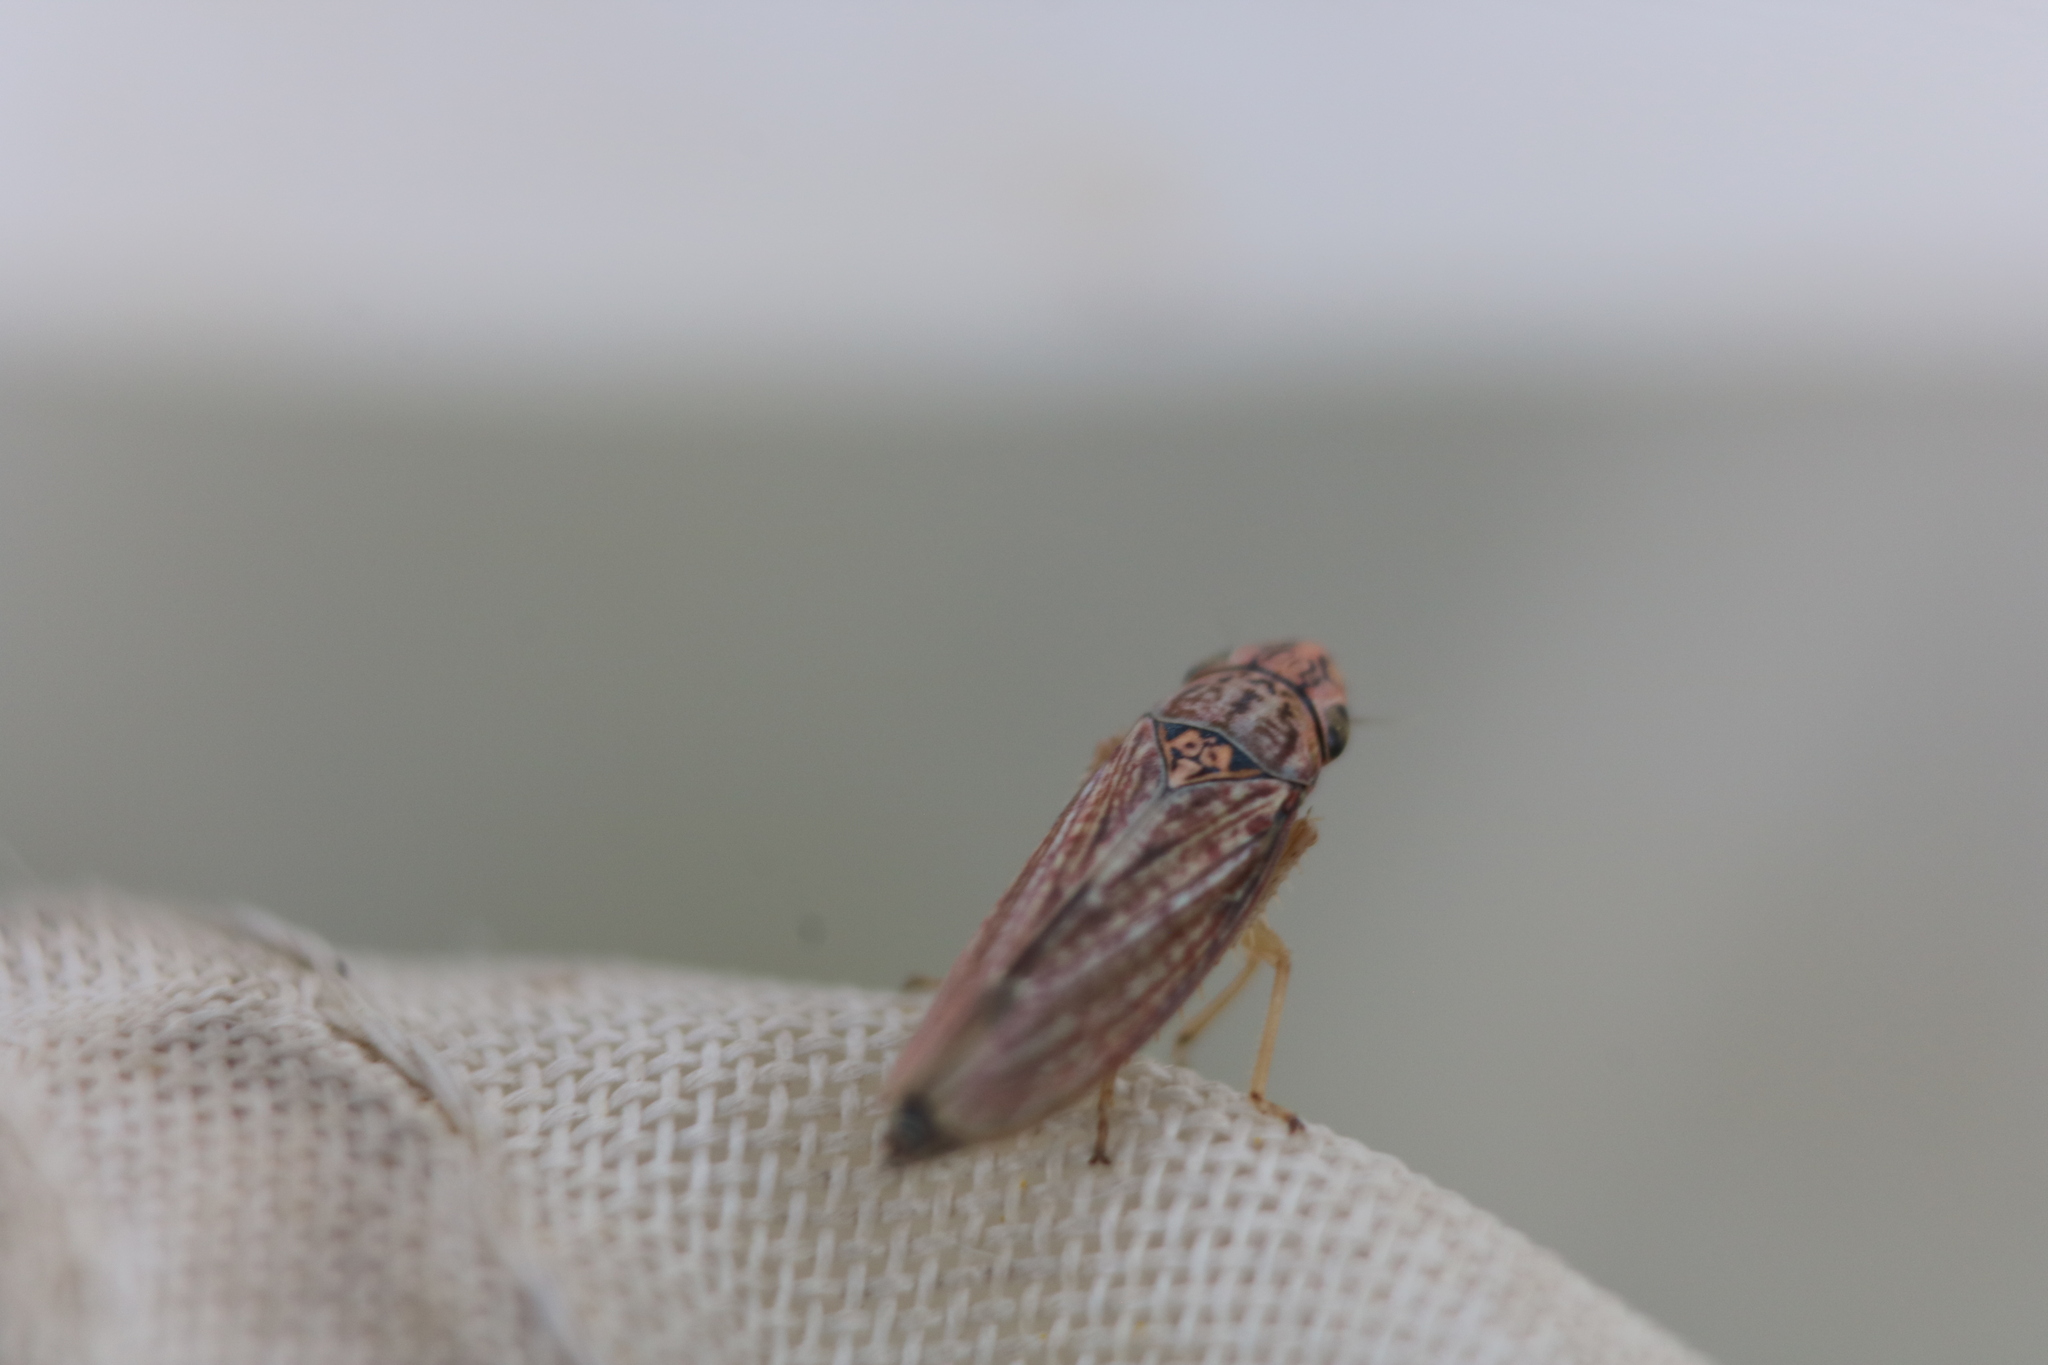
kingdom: Animalia
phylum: Arthropoda
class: Insecta
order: Hemiptera
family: Cicadellidae
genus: Neokolla
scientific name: Neokolla hieroglyphica
